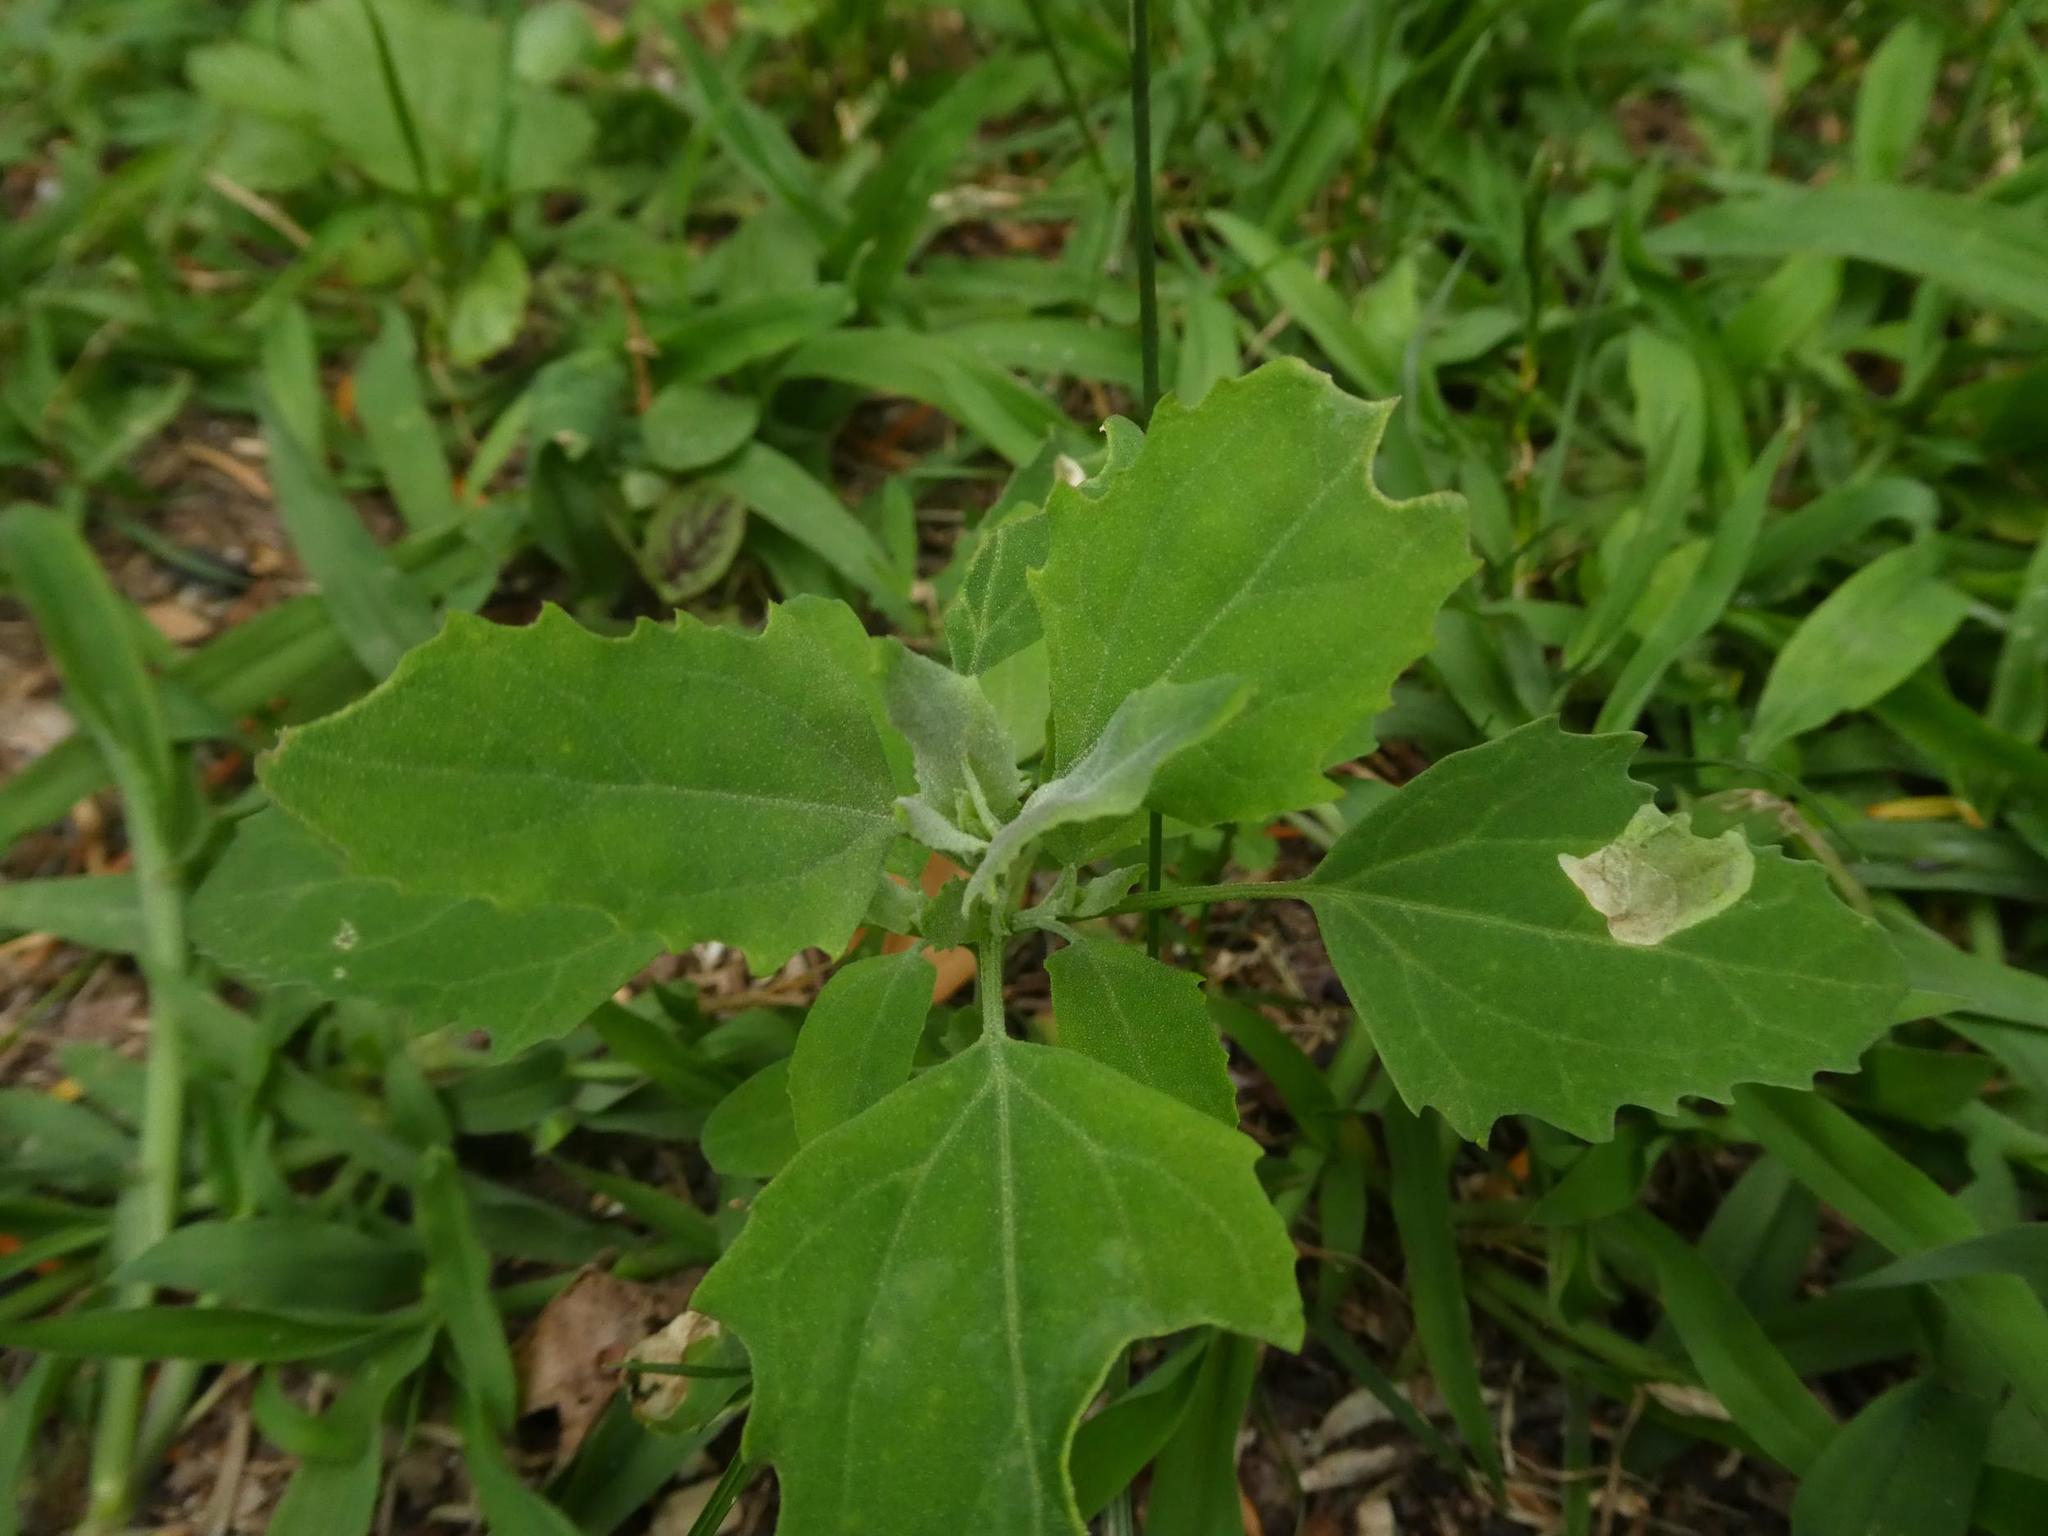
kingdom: Plantae
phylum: Tracheophyta
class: Magnoliopsida
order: Caryophyllales
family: Amaranthaceae
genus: Chenopodium
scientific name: Chenopodium album
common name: Fat-hen
